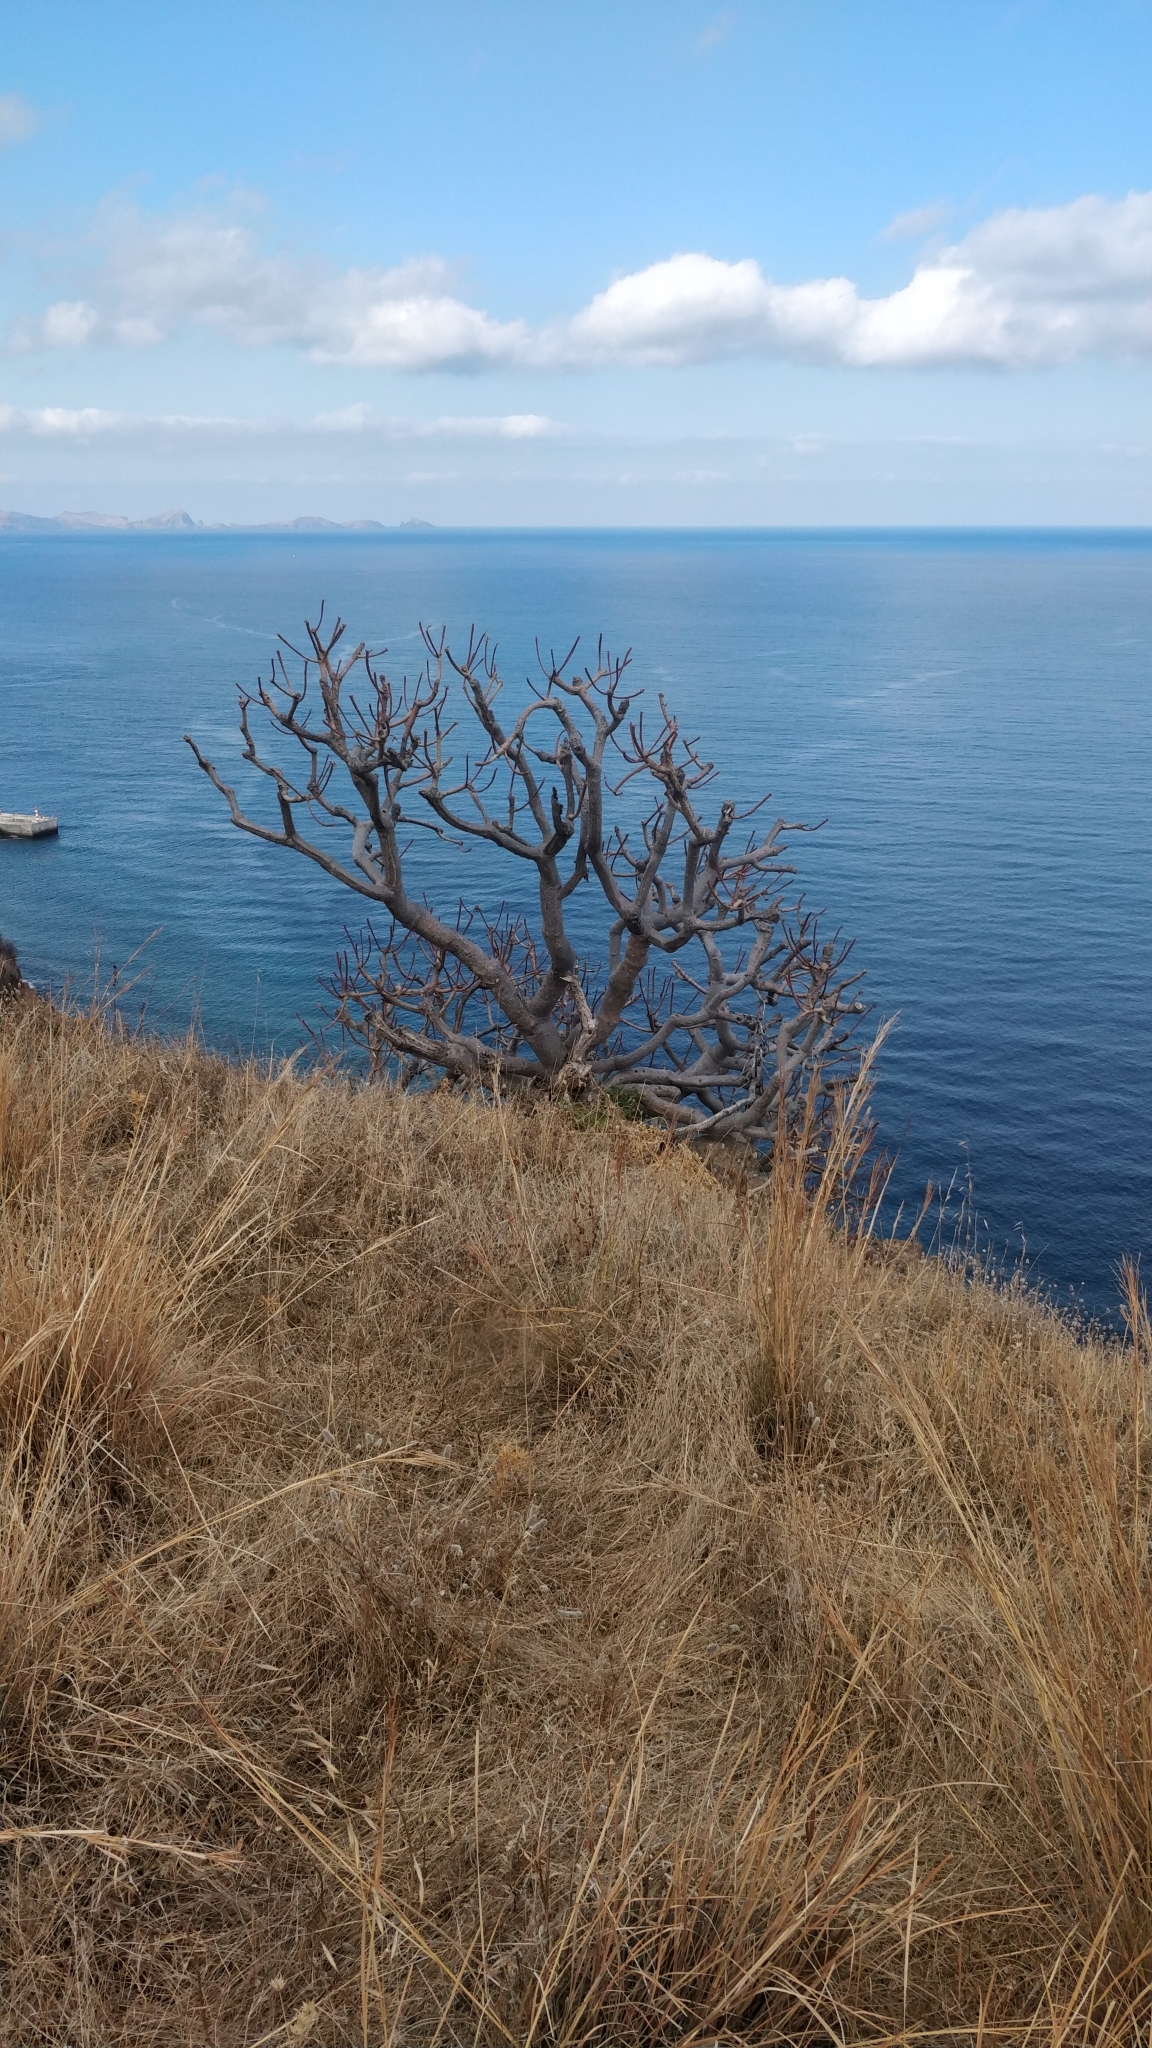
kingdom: Plantae
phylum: Tracheophyta
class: Magnoliopsida
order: Malpighiales
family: Euphorbiaceae
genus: Euphorbia
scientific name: Euphorbia piscatoria
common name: Fish-stunning spurge
